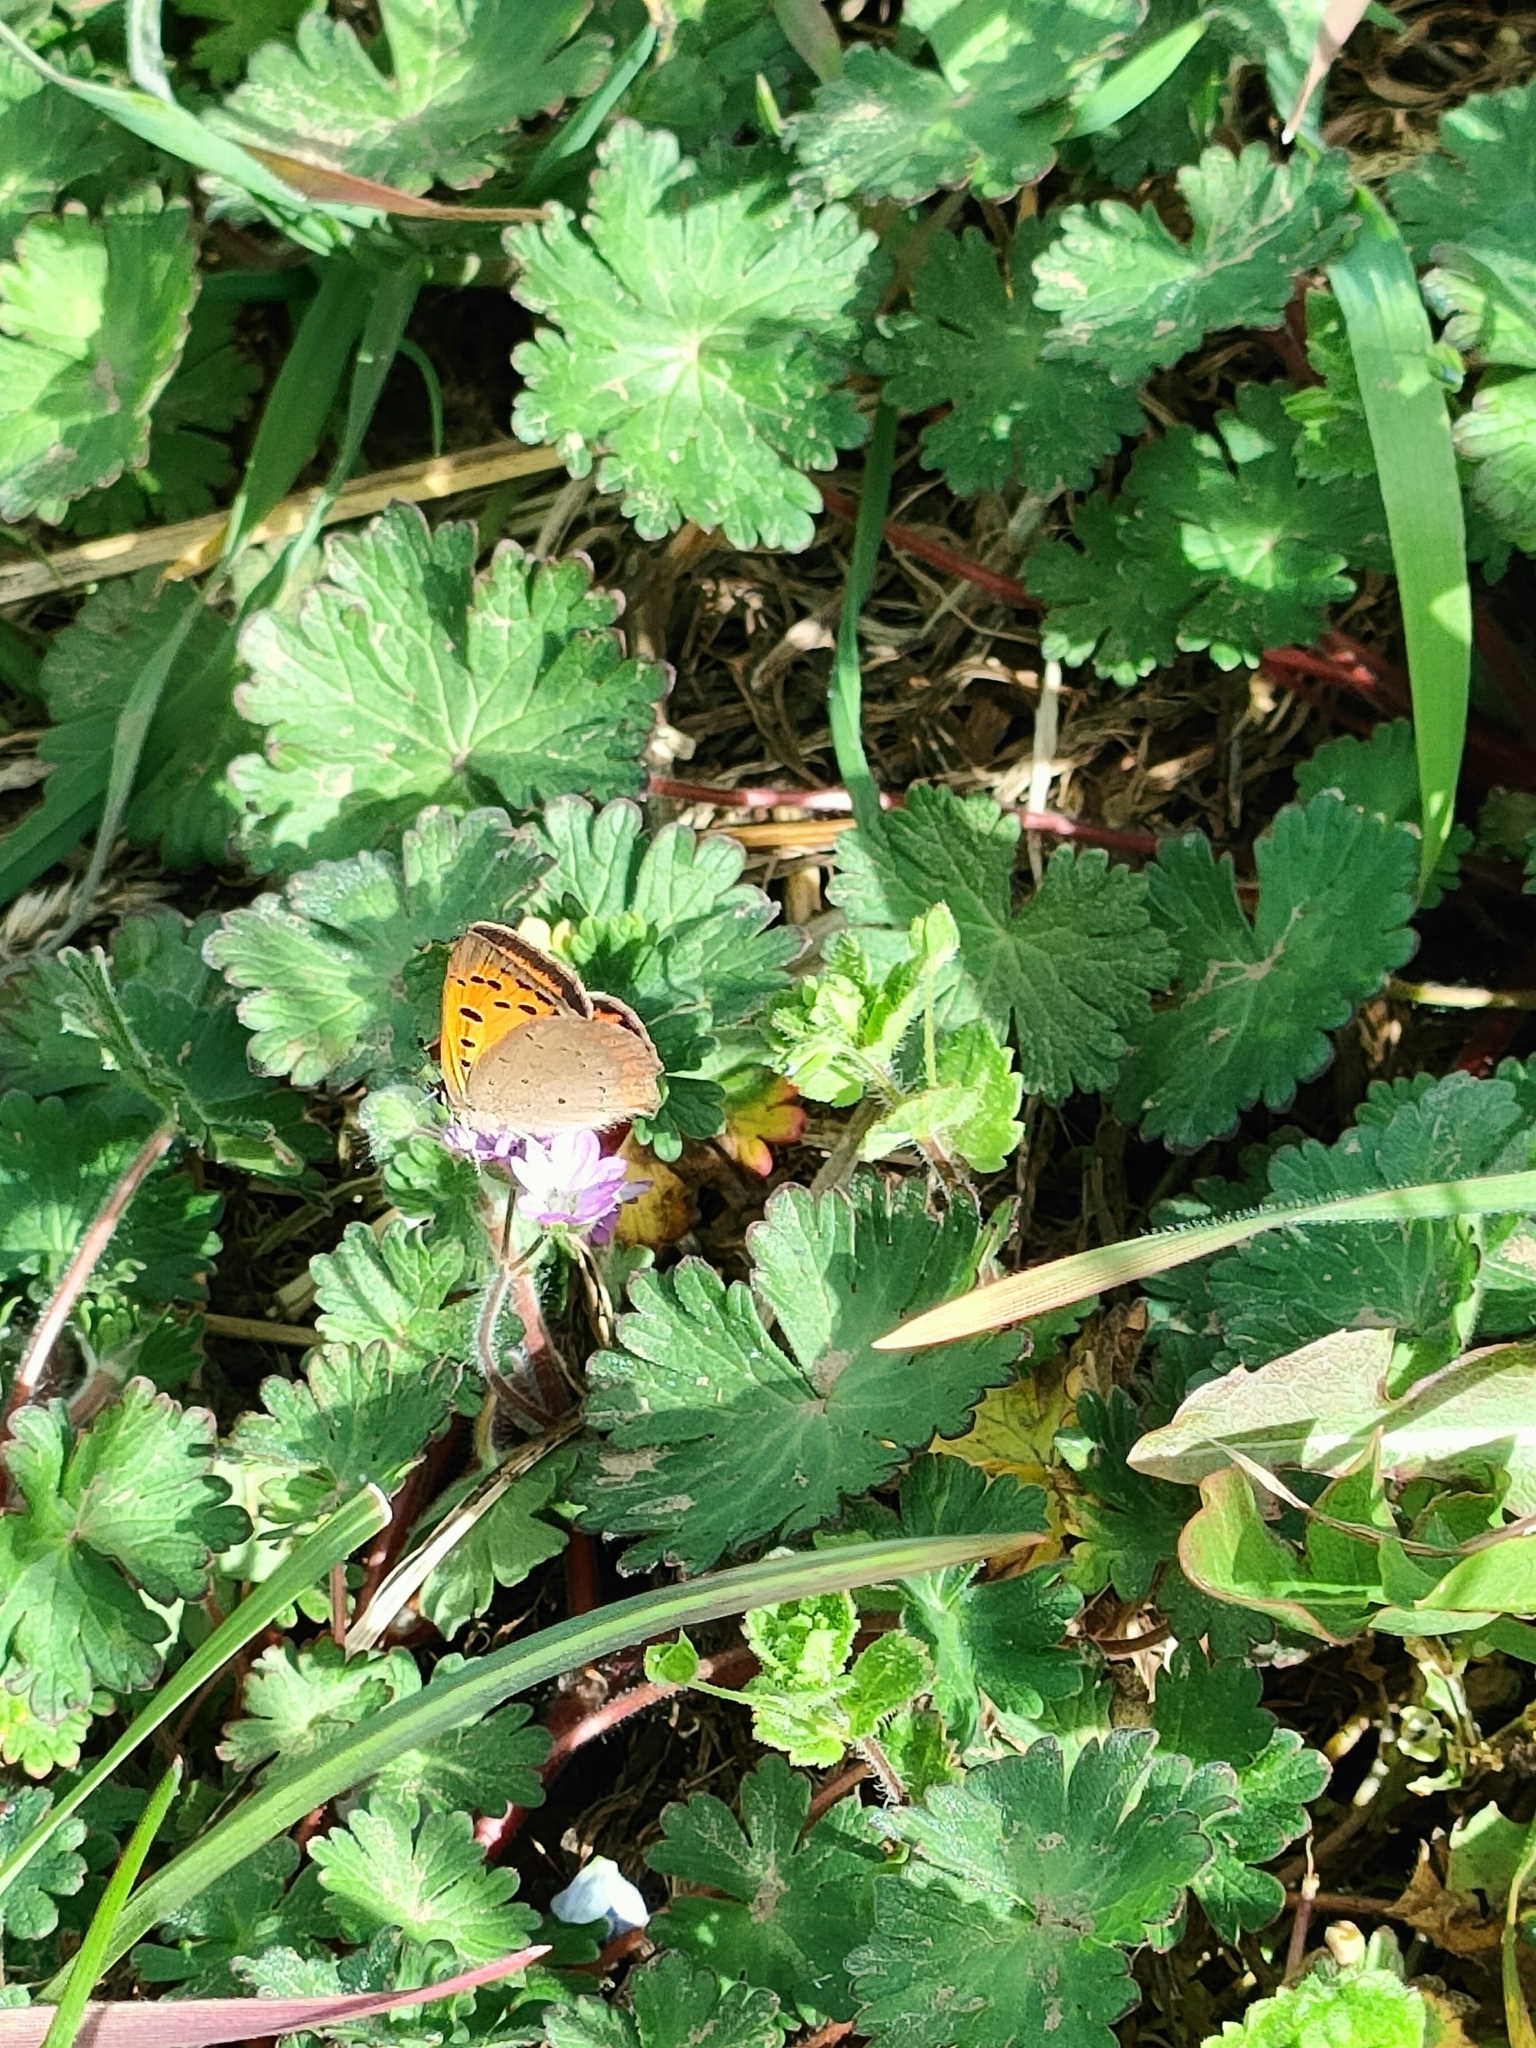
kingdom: Animalia
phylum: Arthropoda
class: Insecta
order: Lepidoptera
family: Lycaenidae
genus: Lycaena
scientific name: Lycaena phlaeas
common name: Small copper
